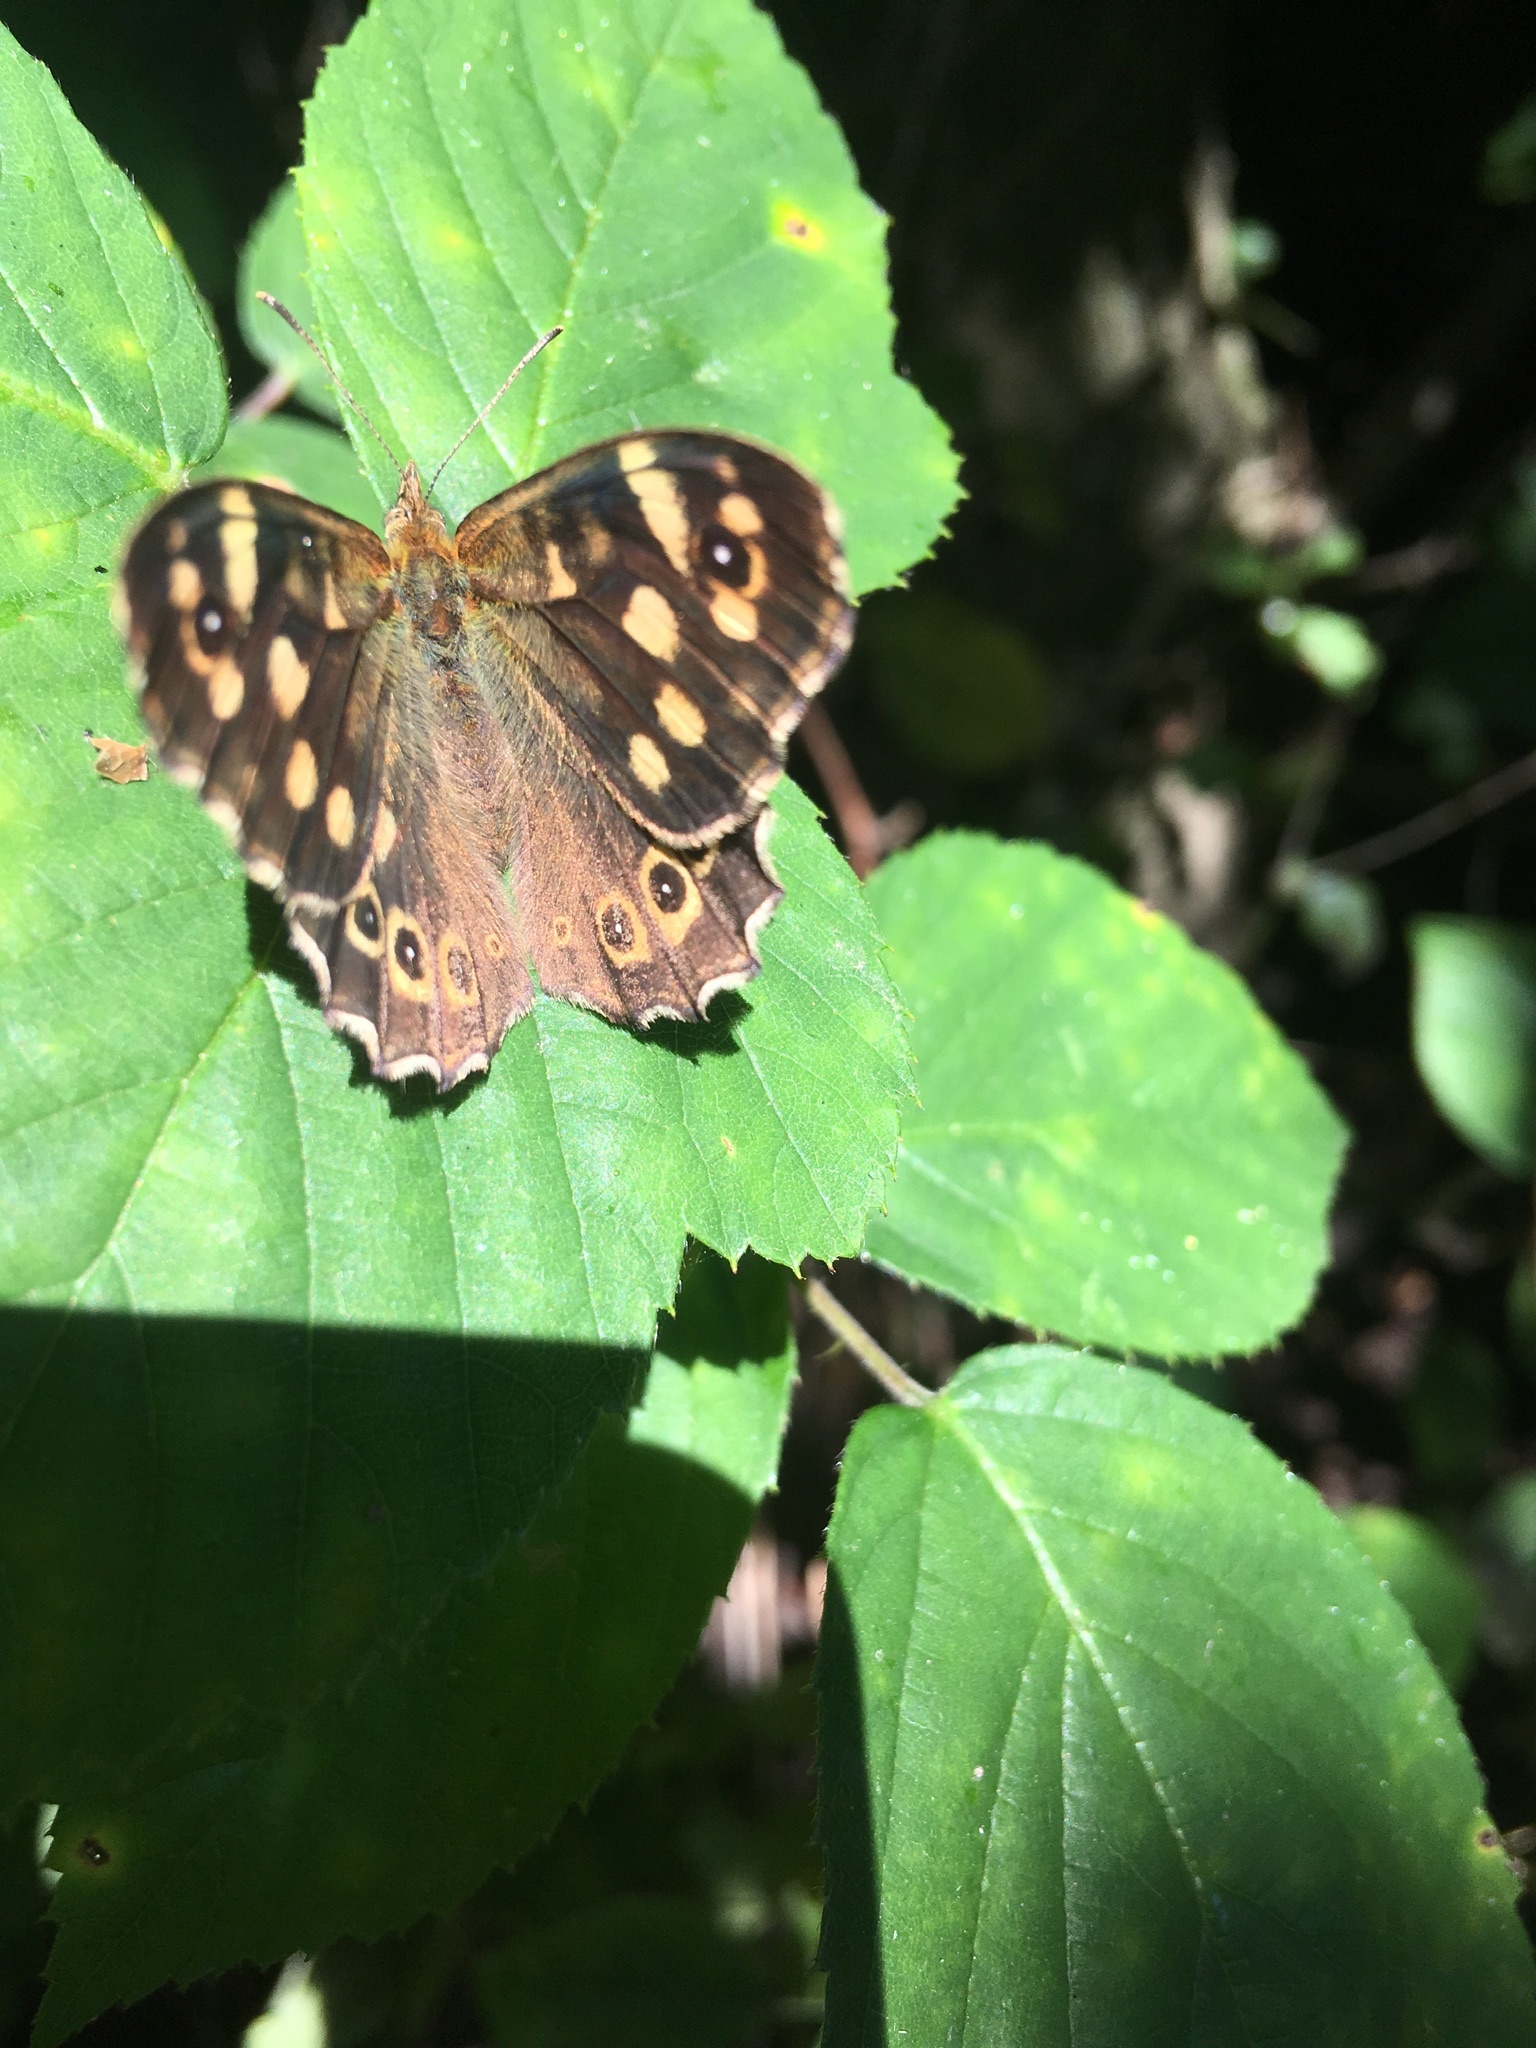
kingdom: Animalia
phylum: Arthropoda
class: Insecta
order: Lepidoptera
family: Nymphalidae
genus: Pararge
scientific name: Pararge aegeria
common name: Speckled wood
